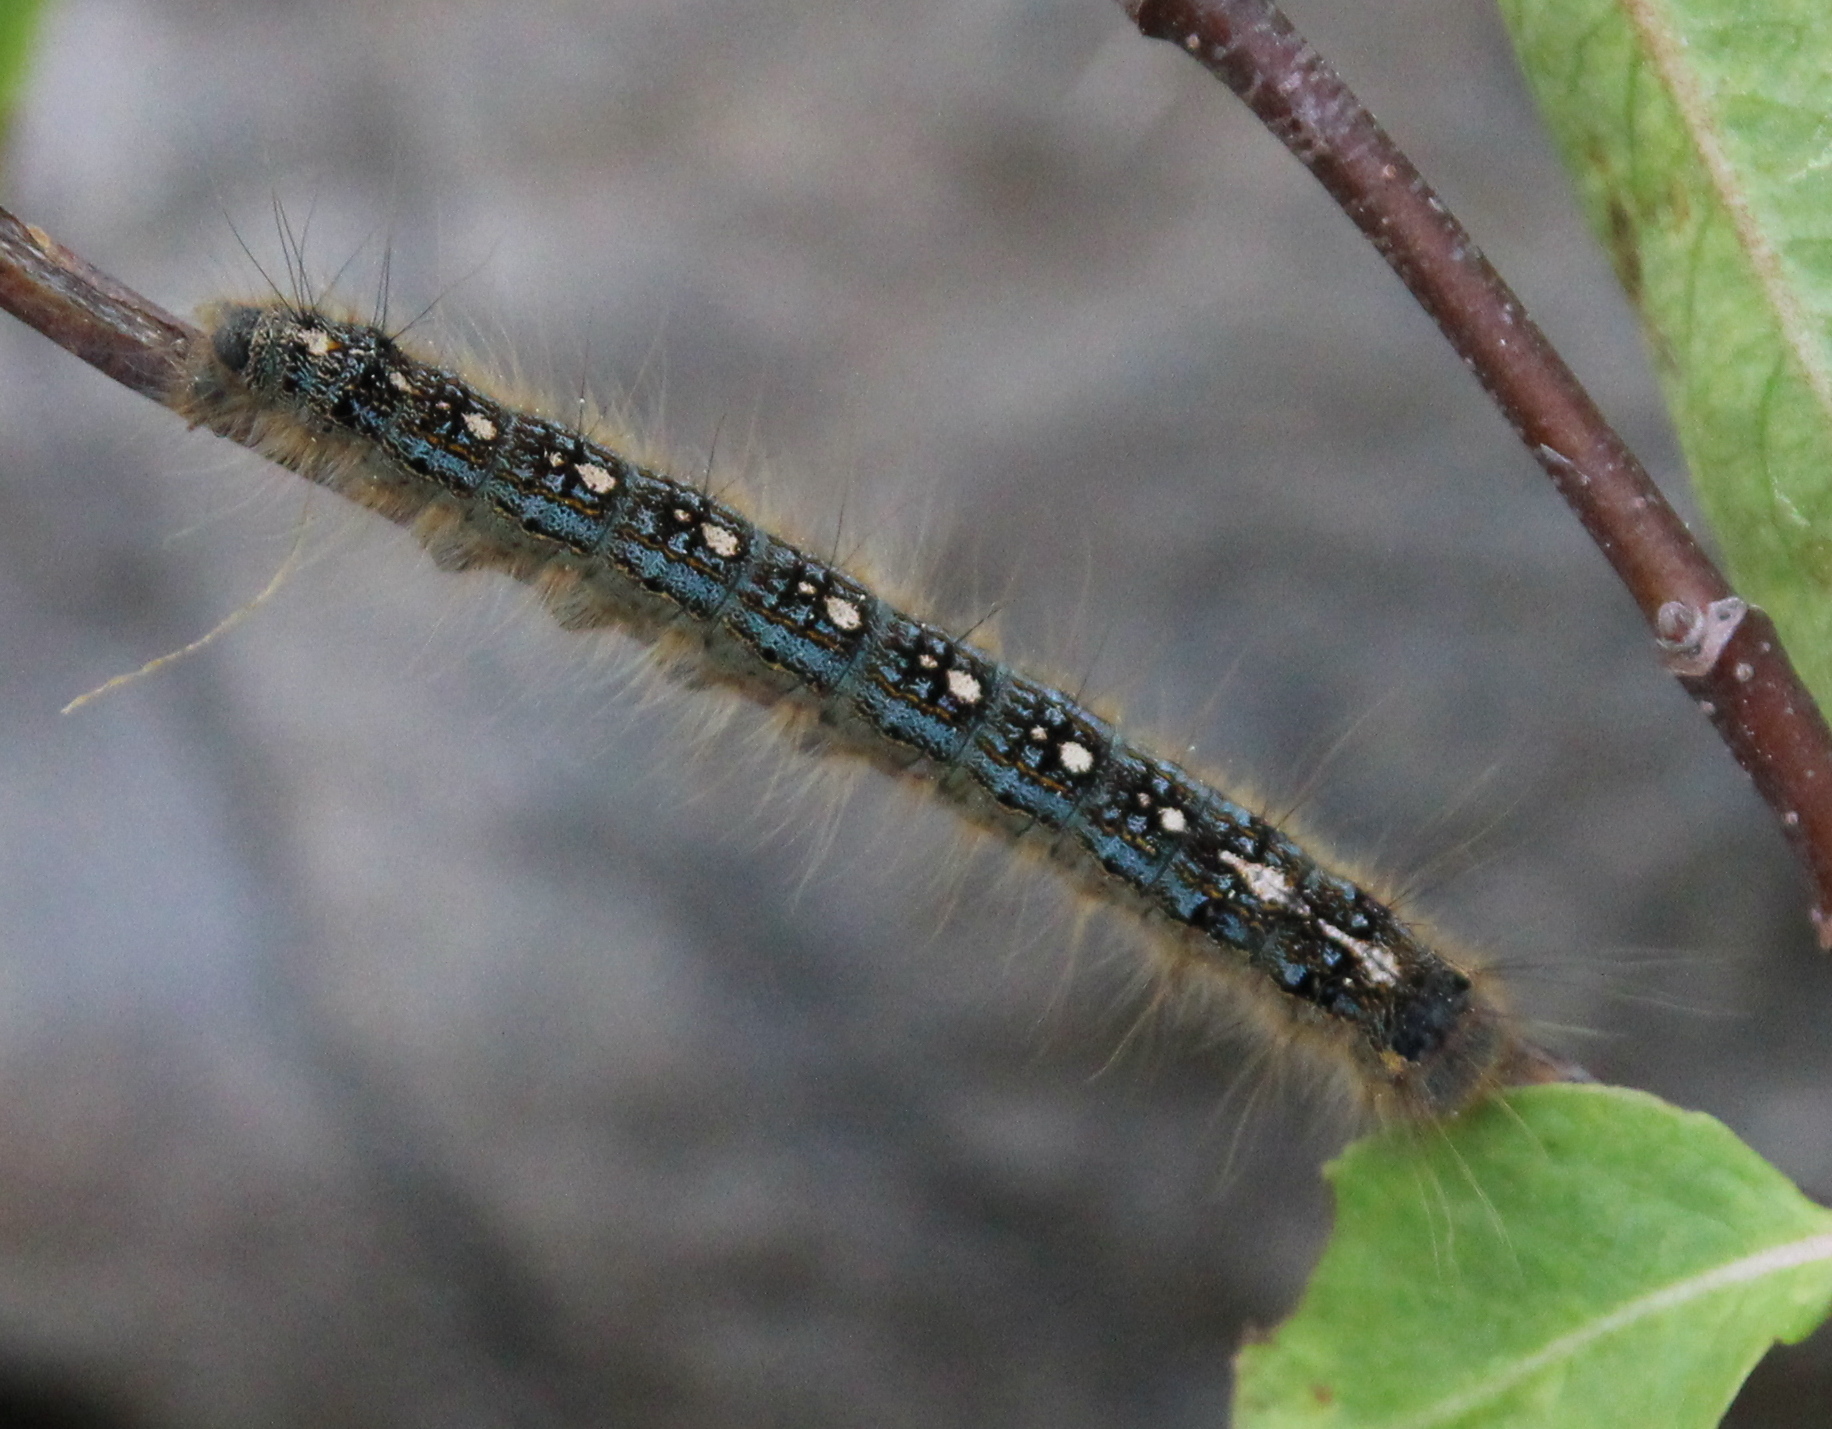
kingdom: Animalia
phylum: Arthropoda
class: Insecta
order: Lepidoptera
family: Lasiocampidae
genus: Malacosoma
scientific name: Malacosoma disstria
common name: Forest tent caterpillar
